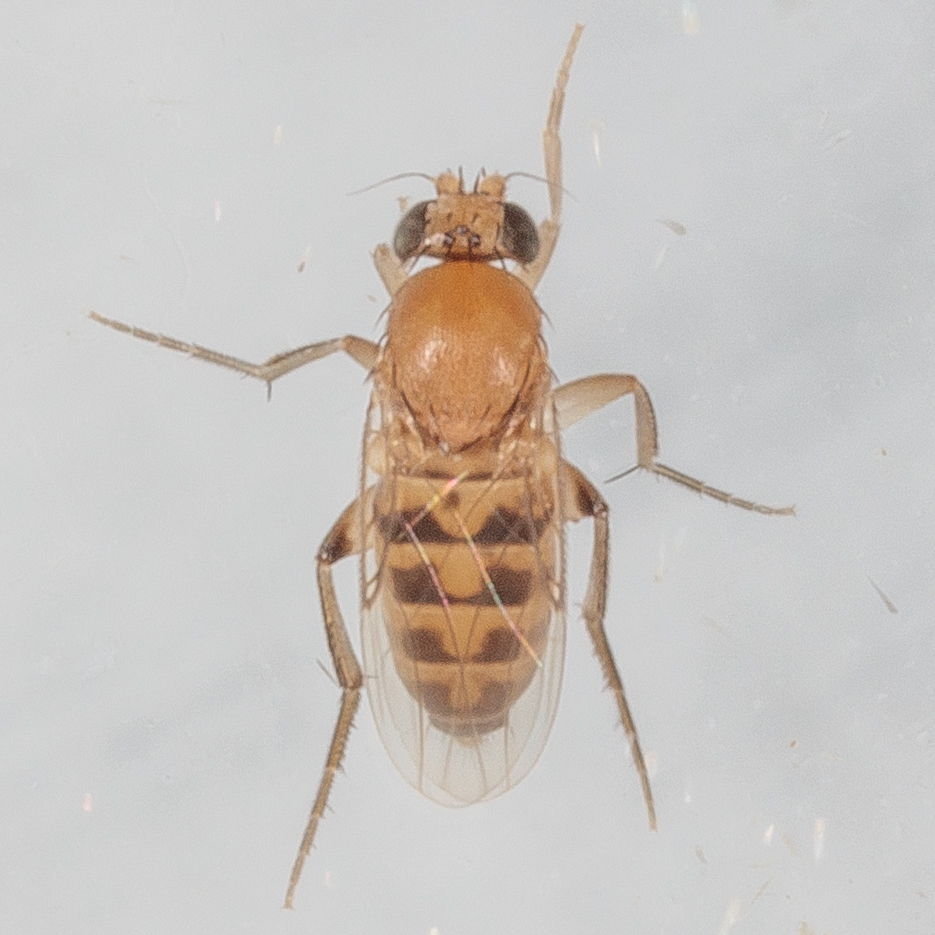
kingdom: Animalia
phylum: Arthropoda
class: Insecta
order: Diptera
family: Phoridae
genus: Megaselia
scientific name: Megaselia scalaris
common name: Scuttle fly
